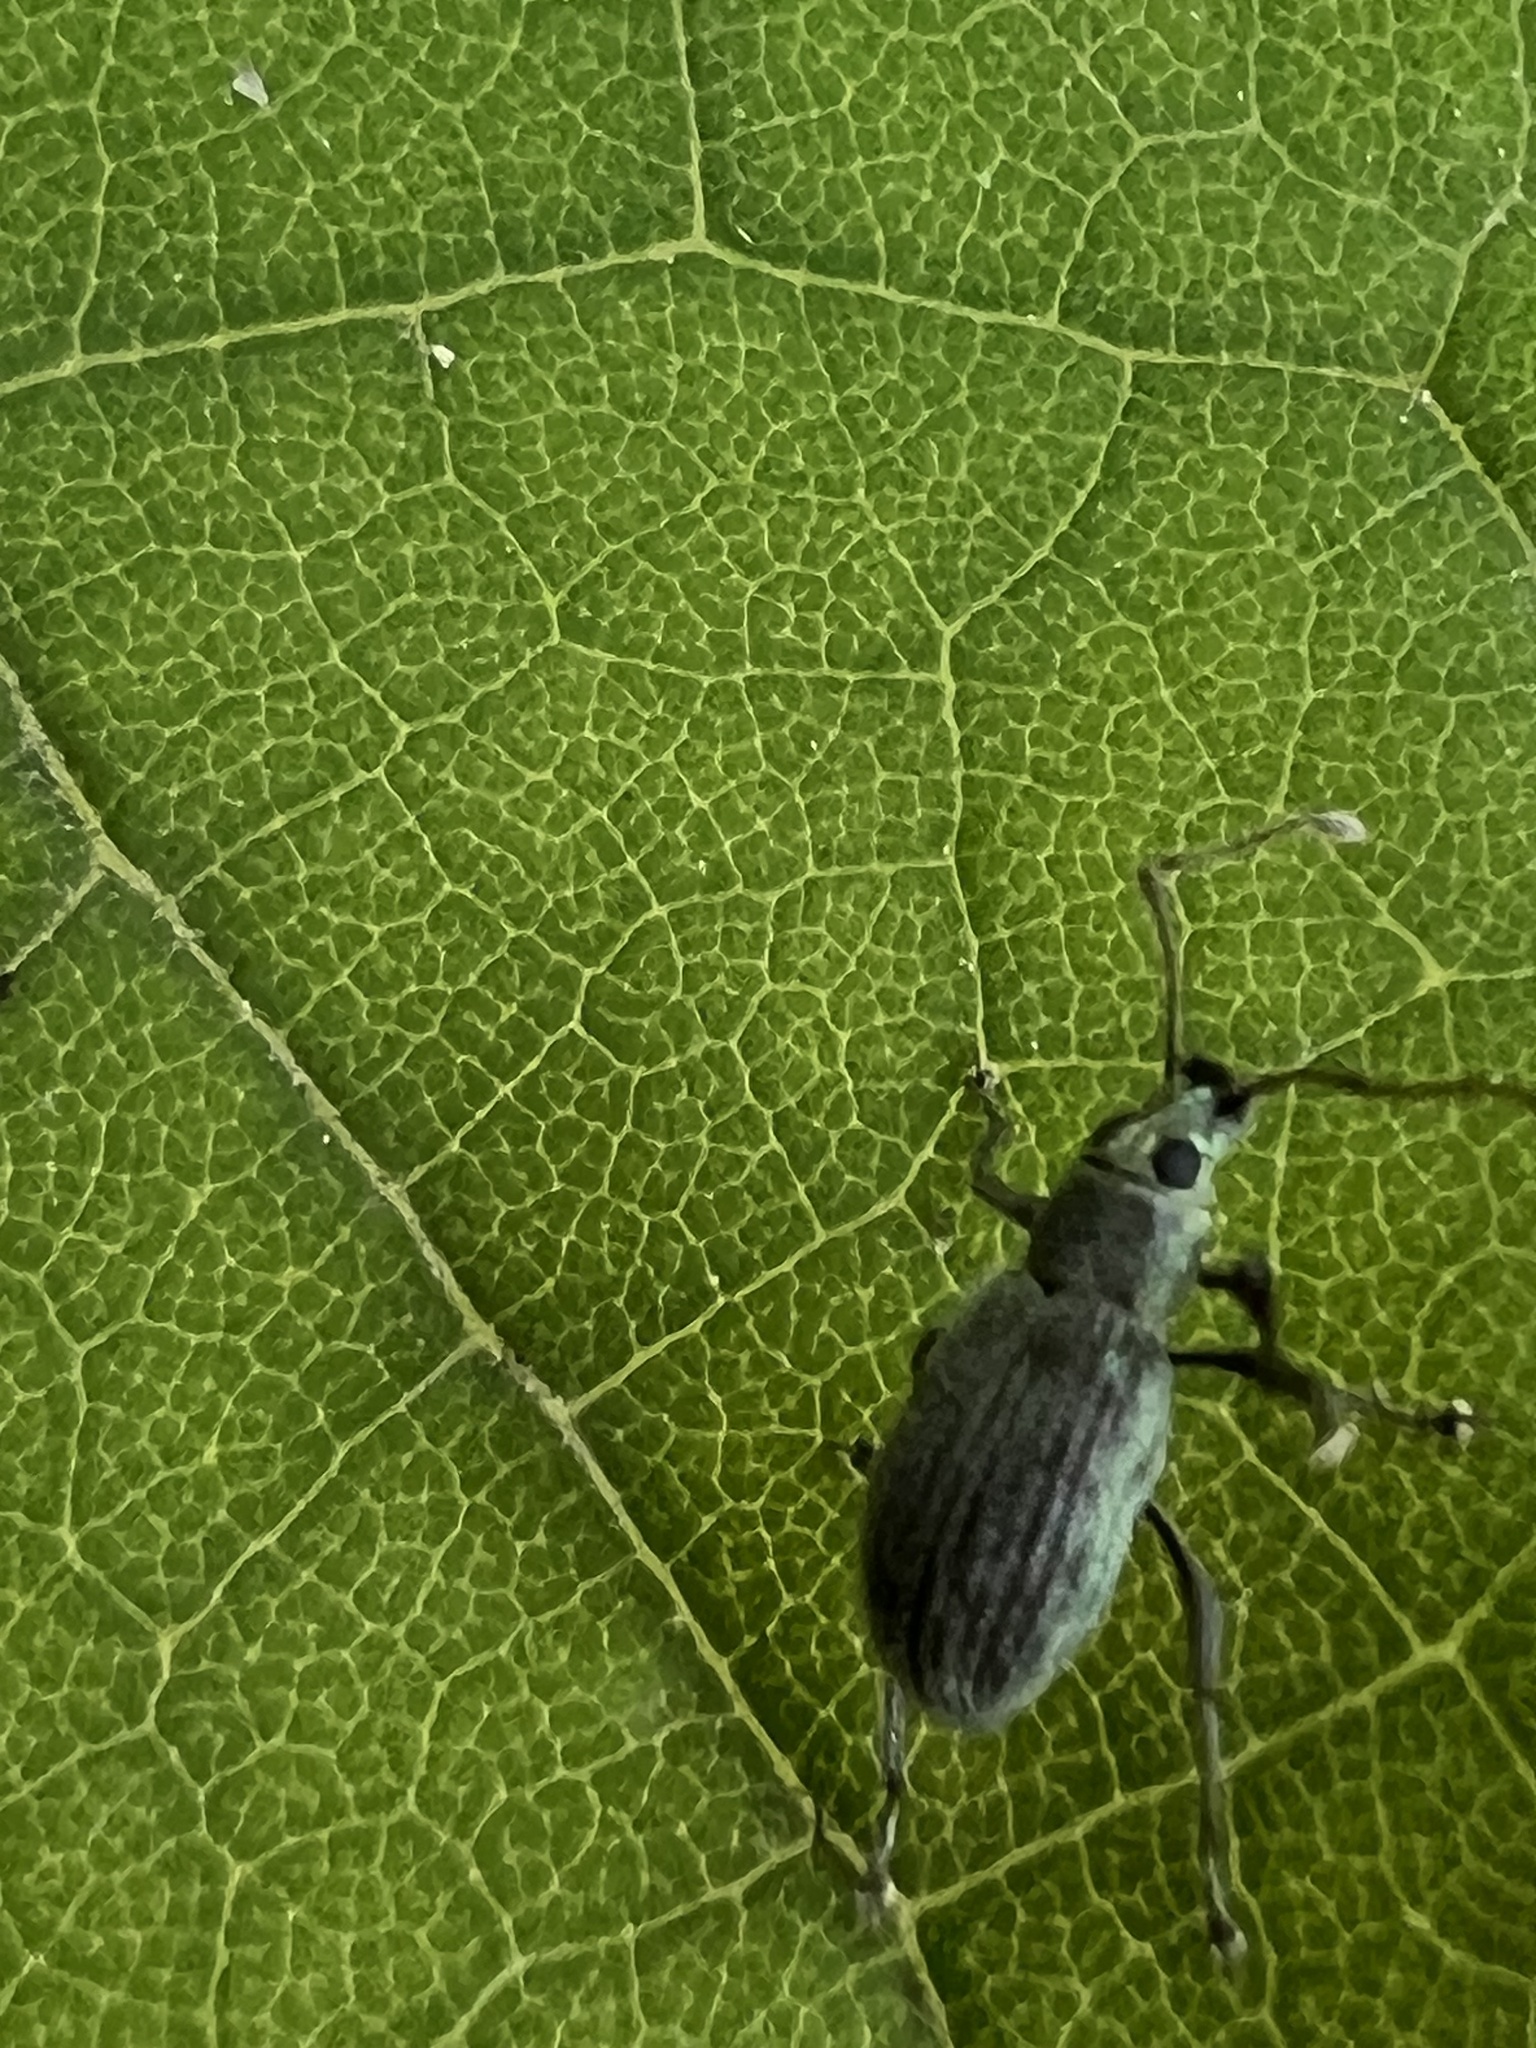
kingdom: Animalia
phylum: Arthropoda
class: Insecta
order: Coleoptera
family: Curculionidae
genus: Cyrtepistomus
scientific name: Cyrtepistomus castaneus
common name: Weevil
